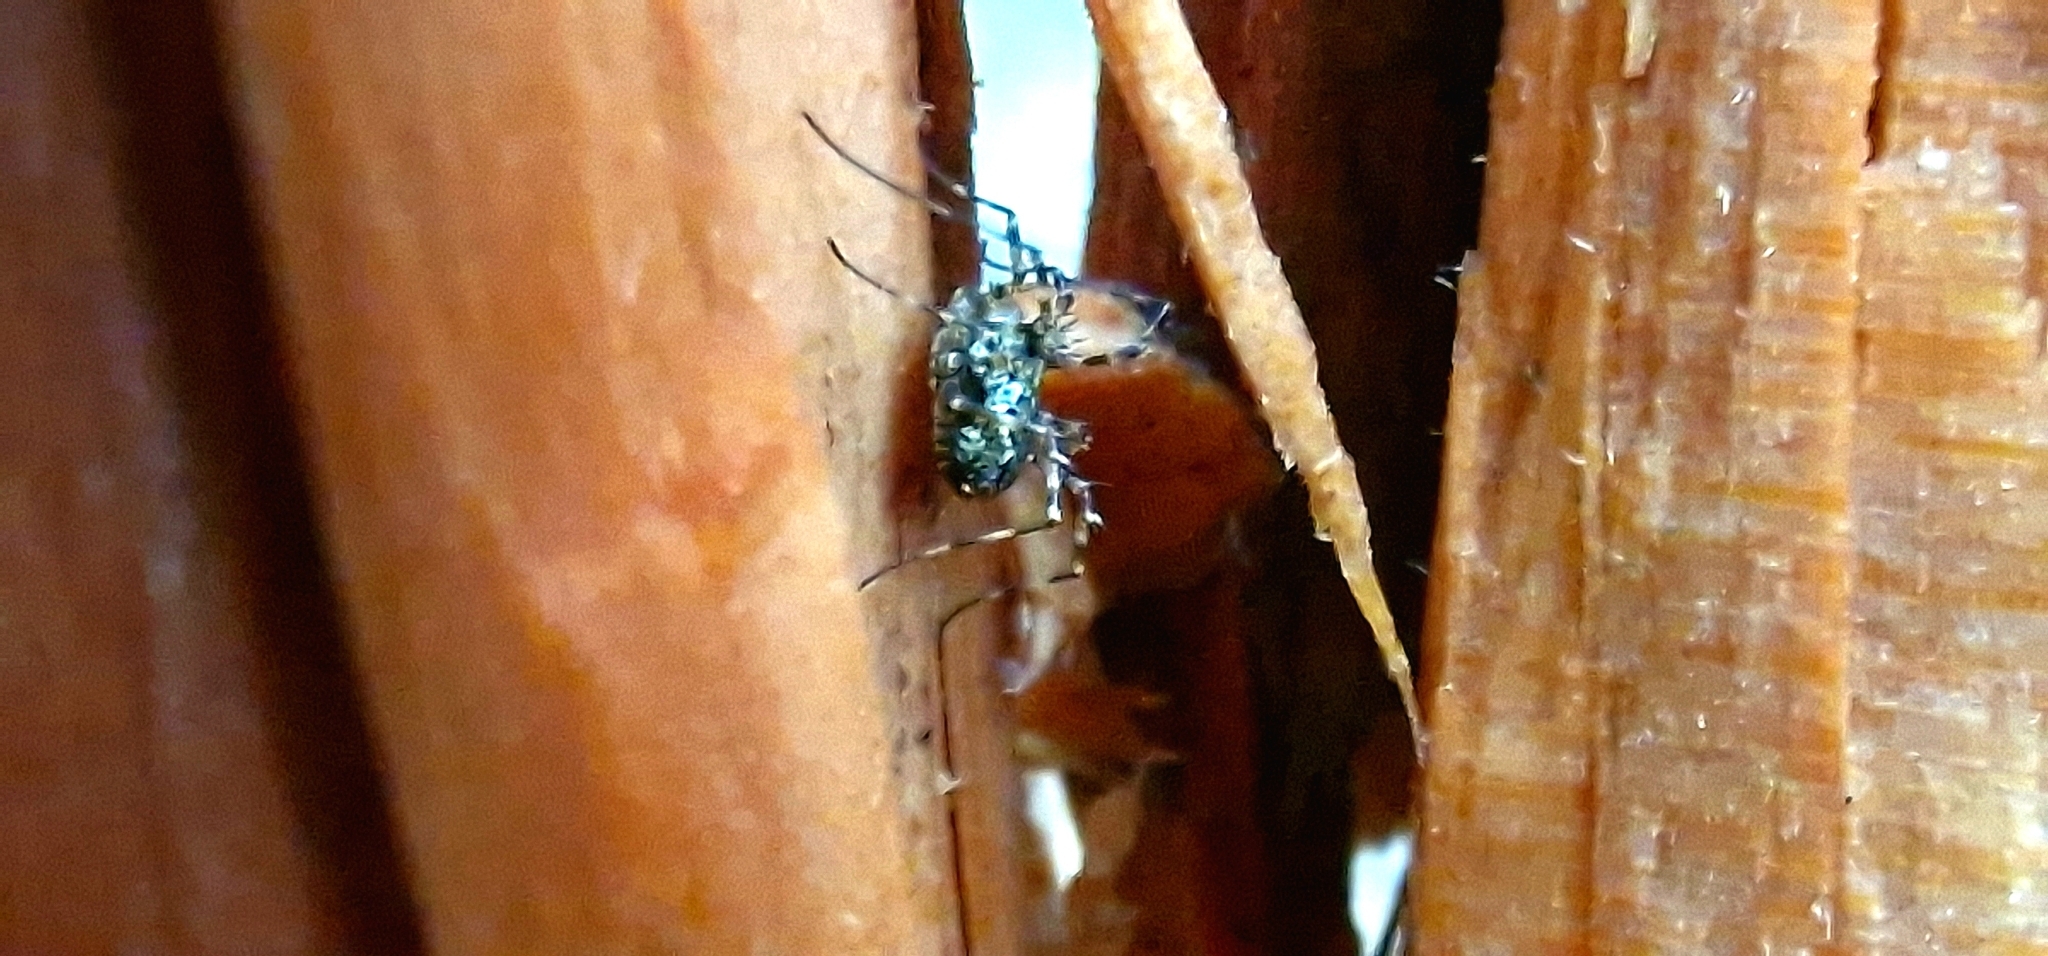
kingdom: Animalia
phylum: Arthropoda
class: Arachnida
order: Opiliones
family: Phalangiidae
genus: Megabunus
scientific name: Megabunus diadema
